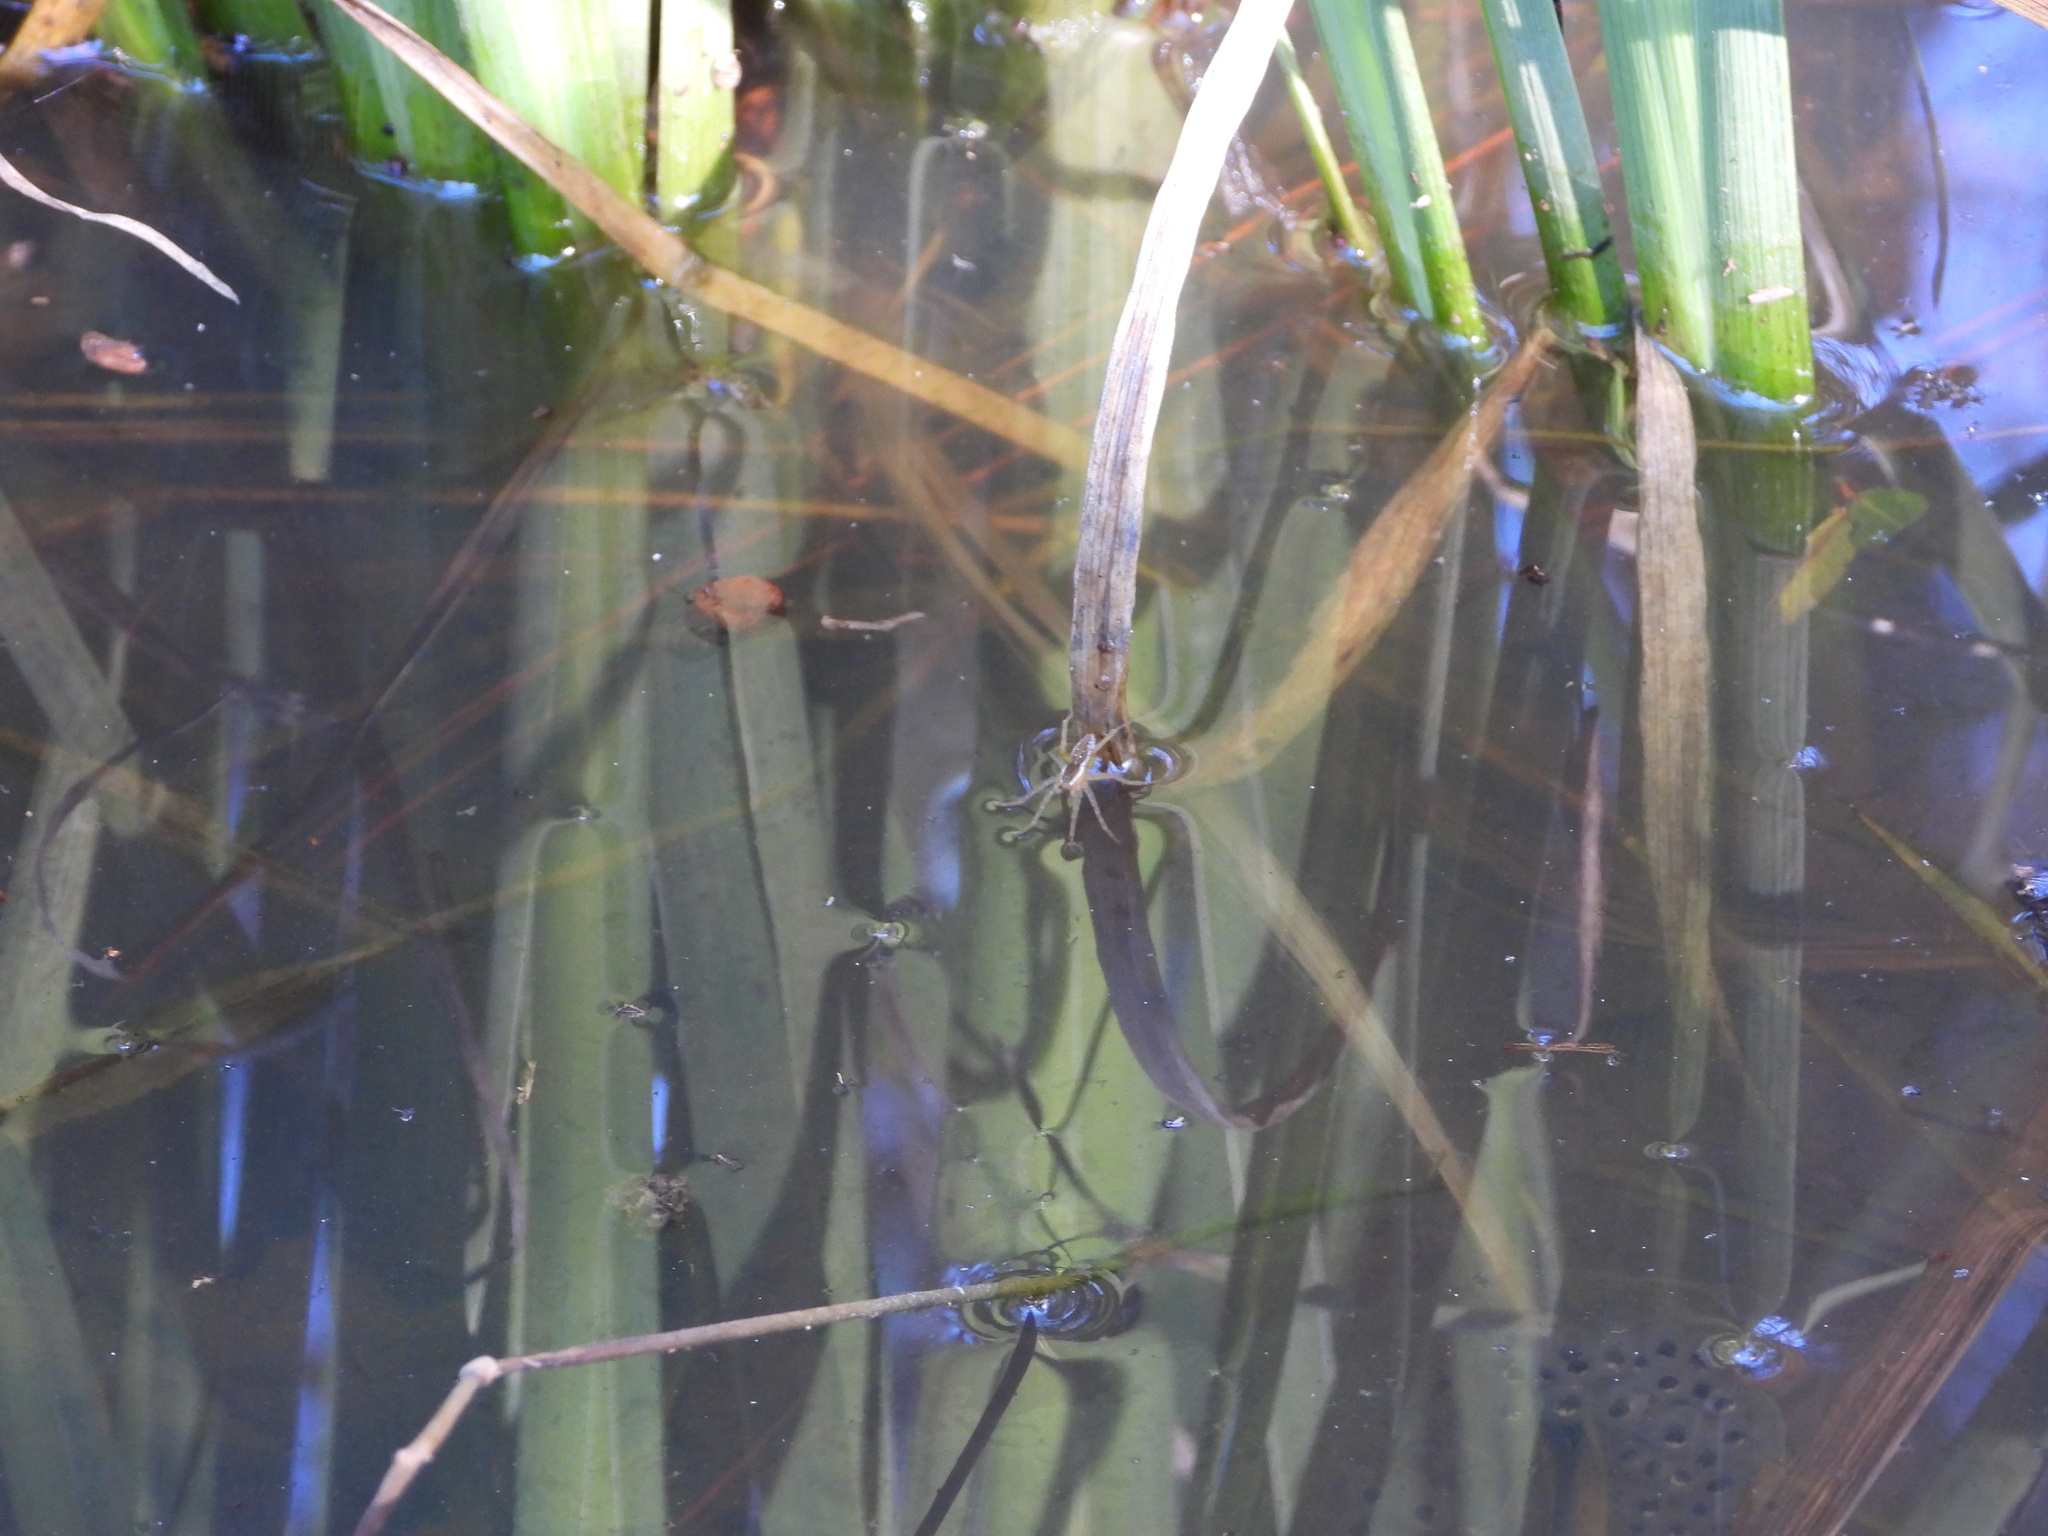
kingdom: Animalia
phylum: Arthropoda
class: Arachnida
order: Araneae
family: Pisauridae
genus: Dolomedes
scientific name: Dolomedes triton
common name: Six-spotted fishing spider
